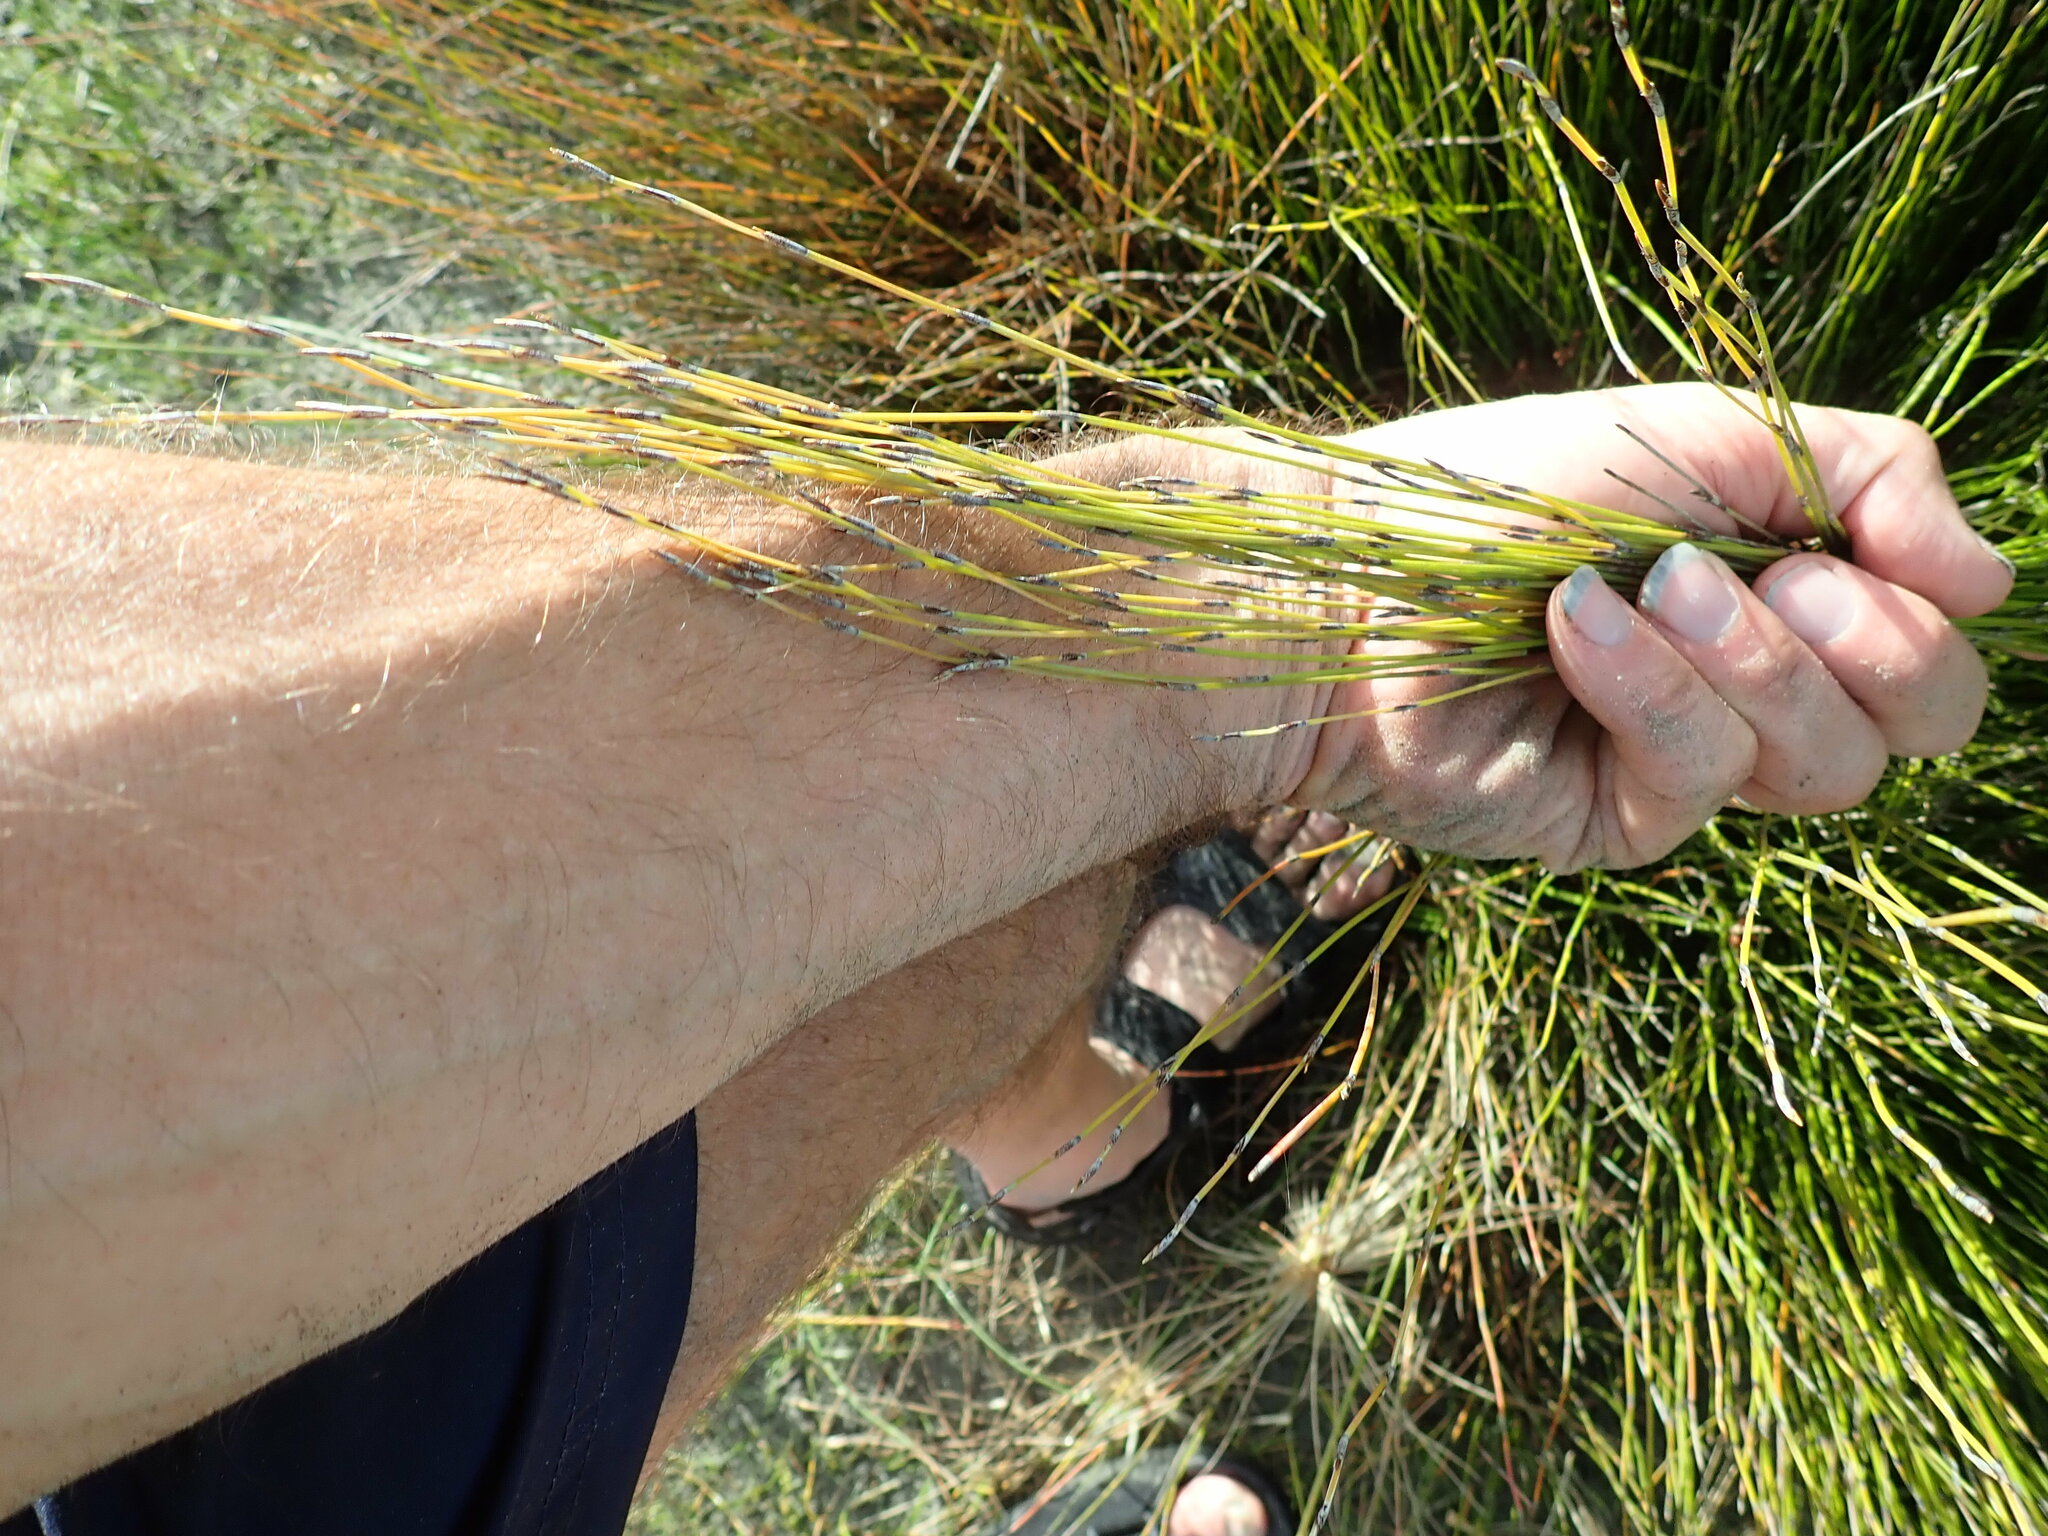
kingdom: Plantae
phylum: Tracheophyta
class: Liliopsida
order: Poales
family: Restionaceae
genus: Apodasmia
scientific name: Apodasmia similis
